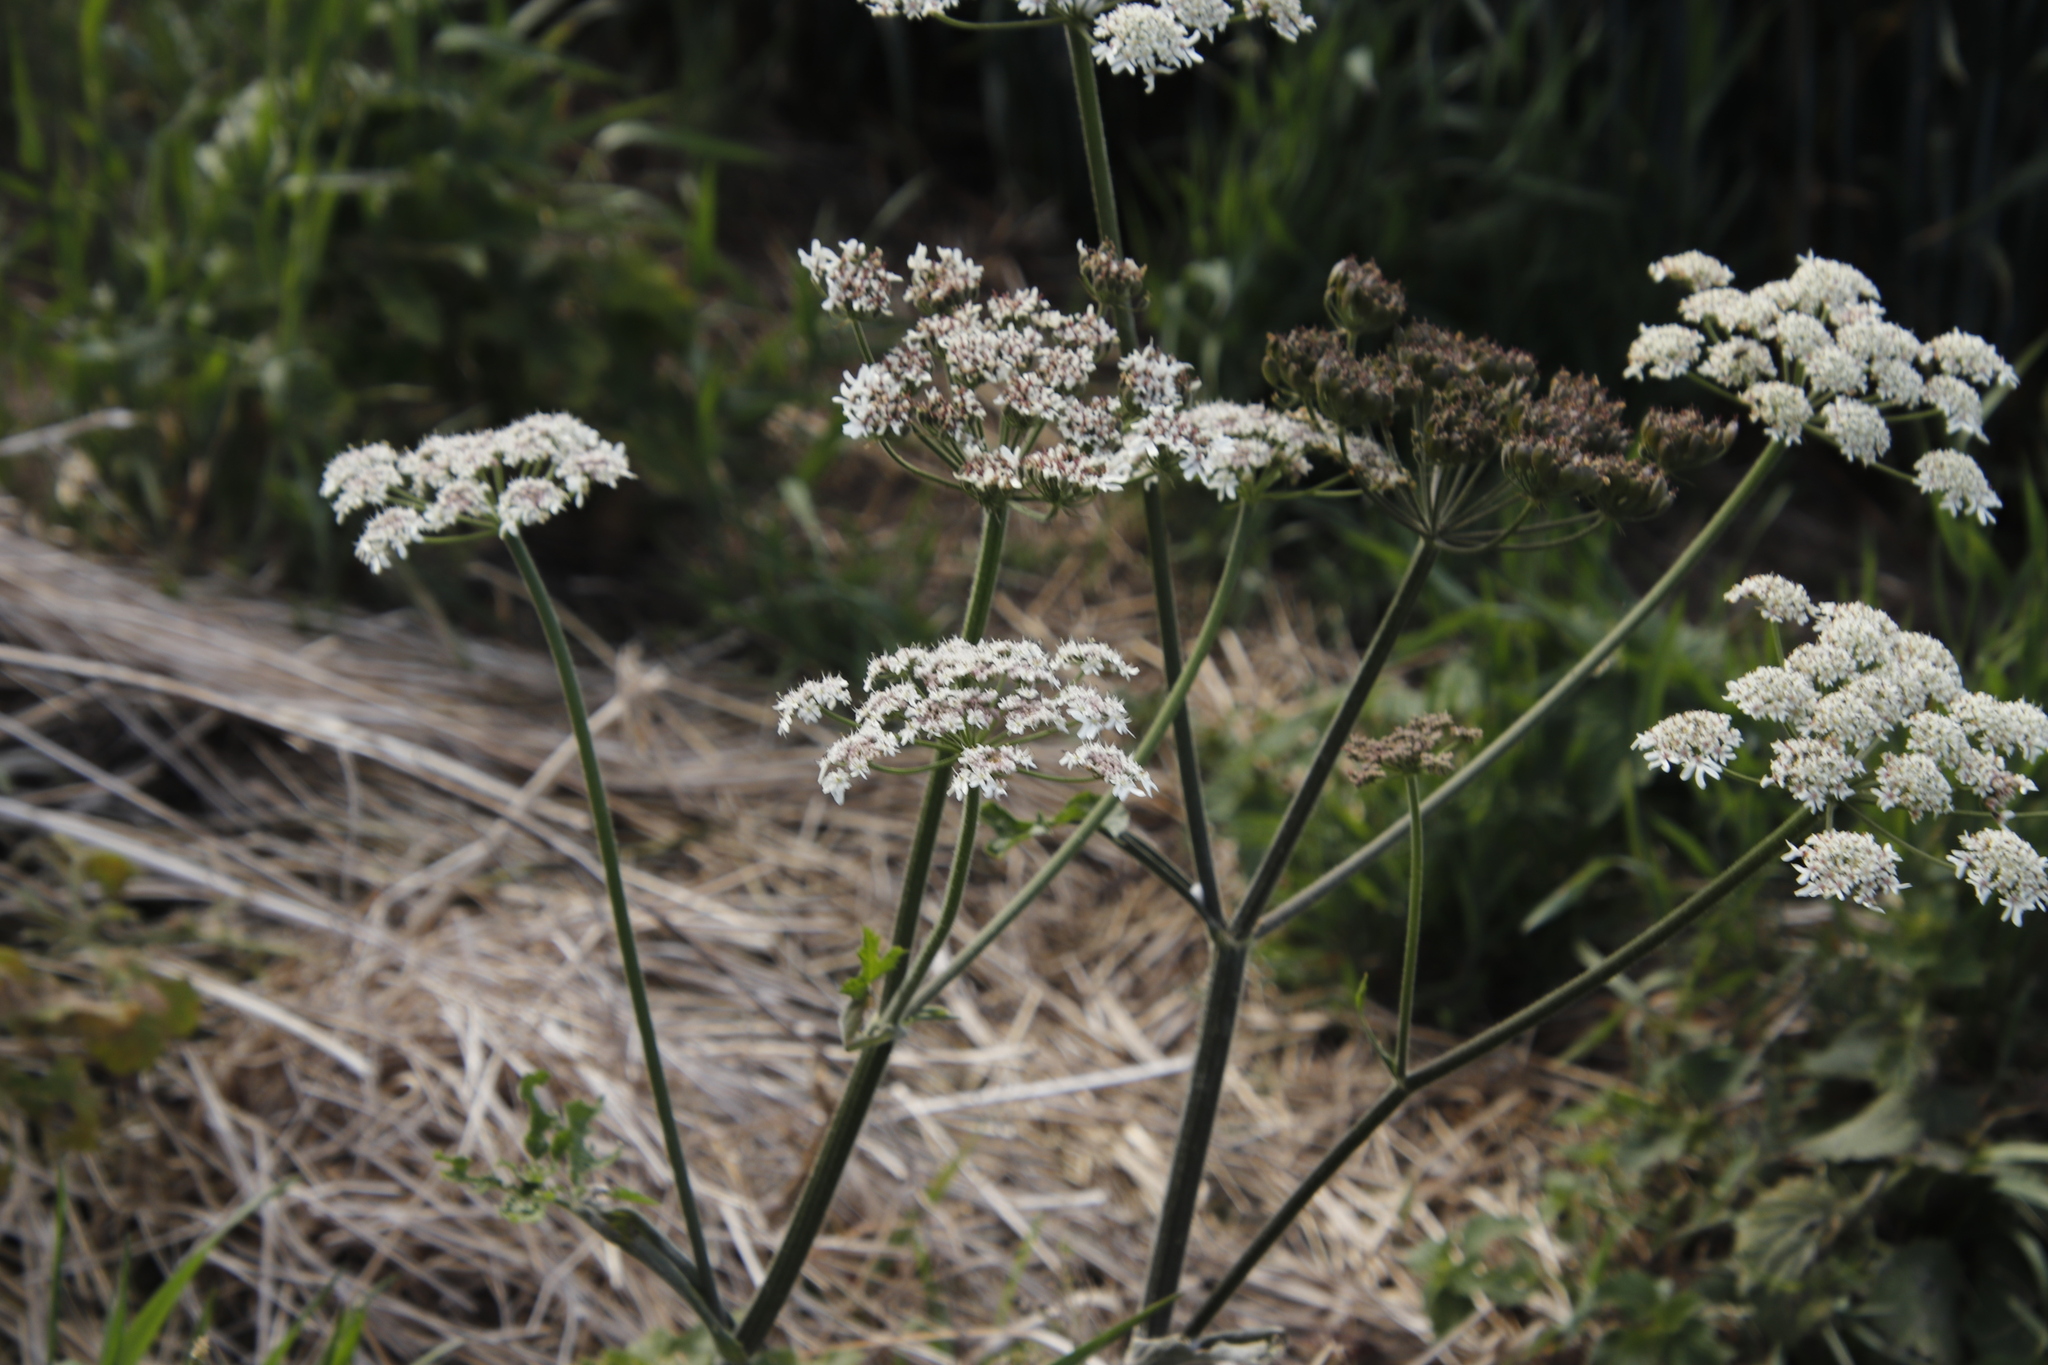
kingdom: Plantae
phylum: Tracheophyta
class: Magnoliopsida
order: Apiales
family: Apiaceae
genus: Heracleum
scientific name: Heracleum sphondylium
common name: Hogweed
